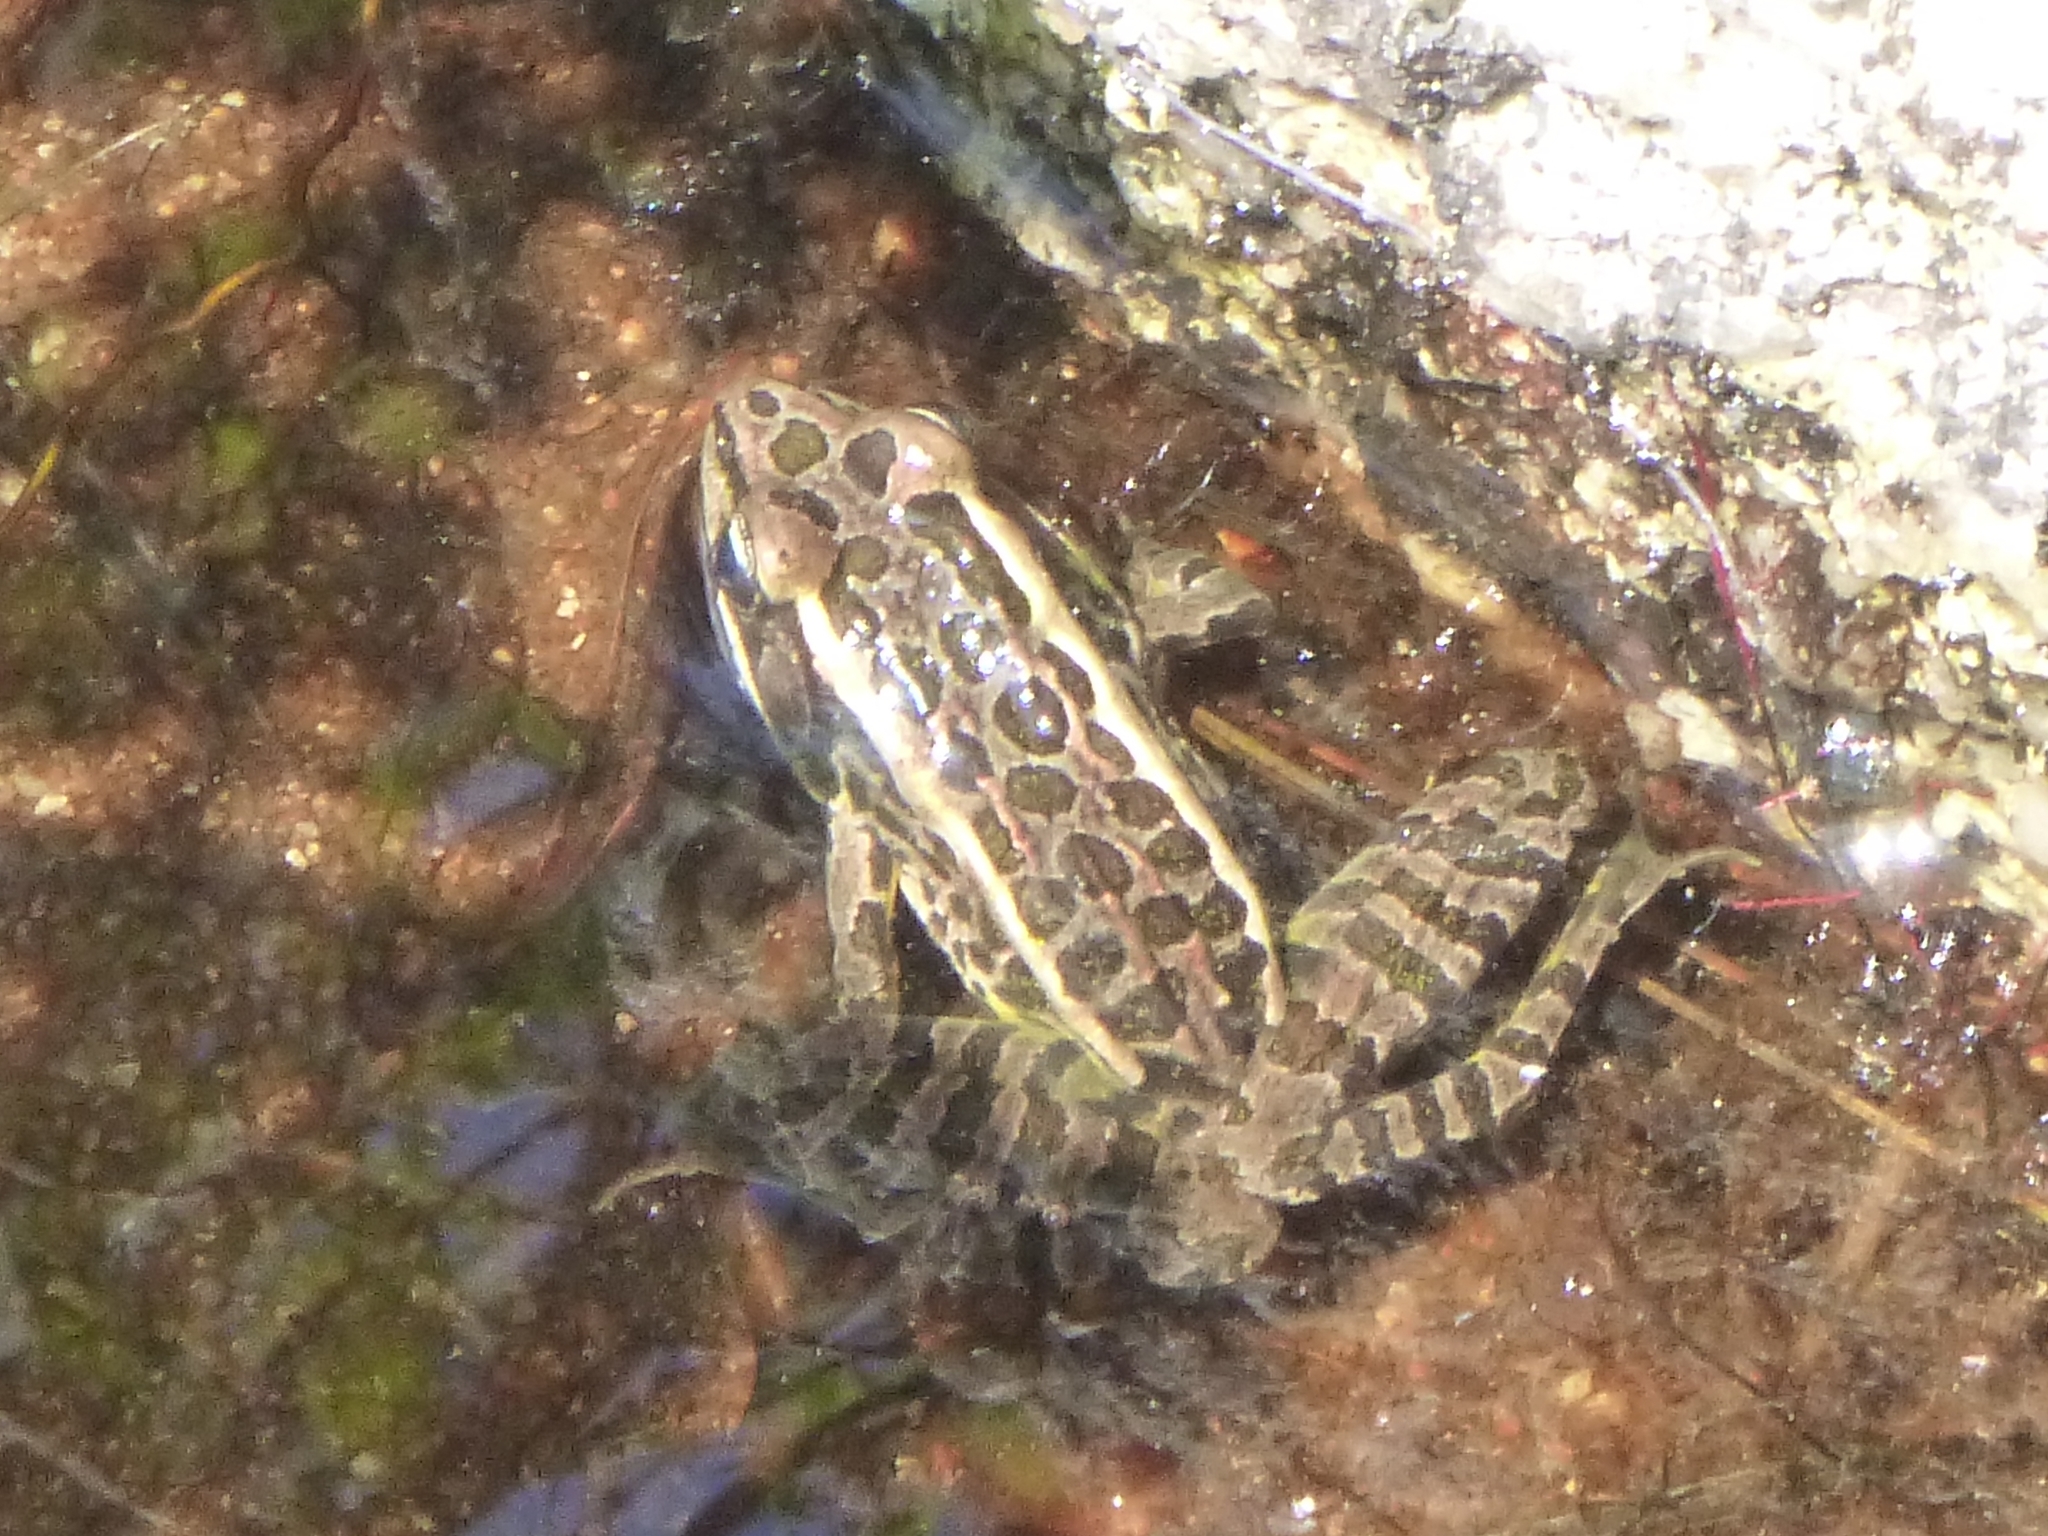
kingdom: Animalia
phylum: Chordata
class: Amphibia
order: Anura
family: Ranidae
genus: Lithobates
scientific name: Lithobates palustris
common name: Pickerel frog
